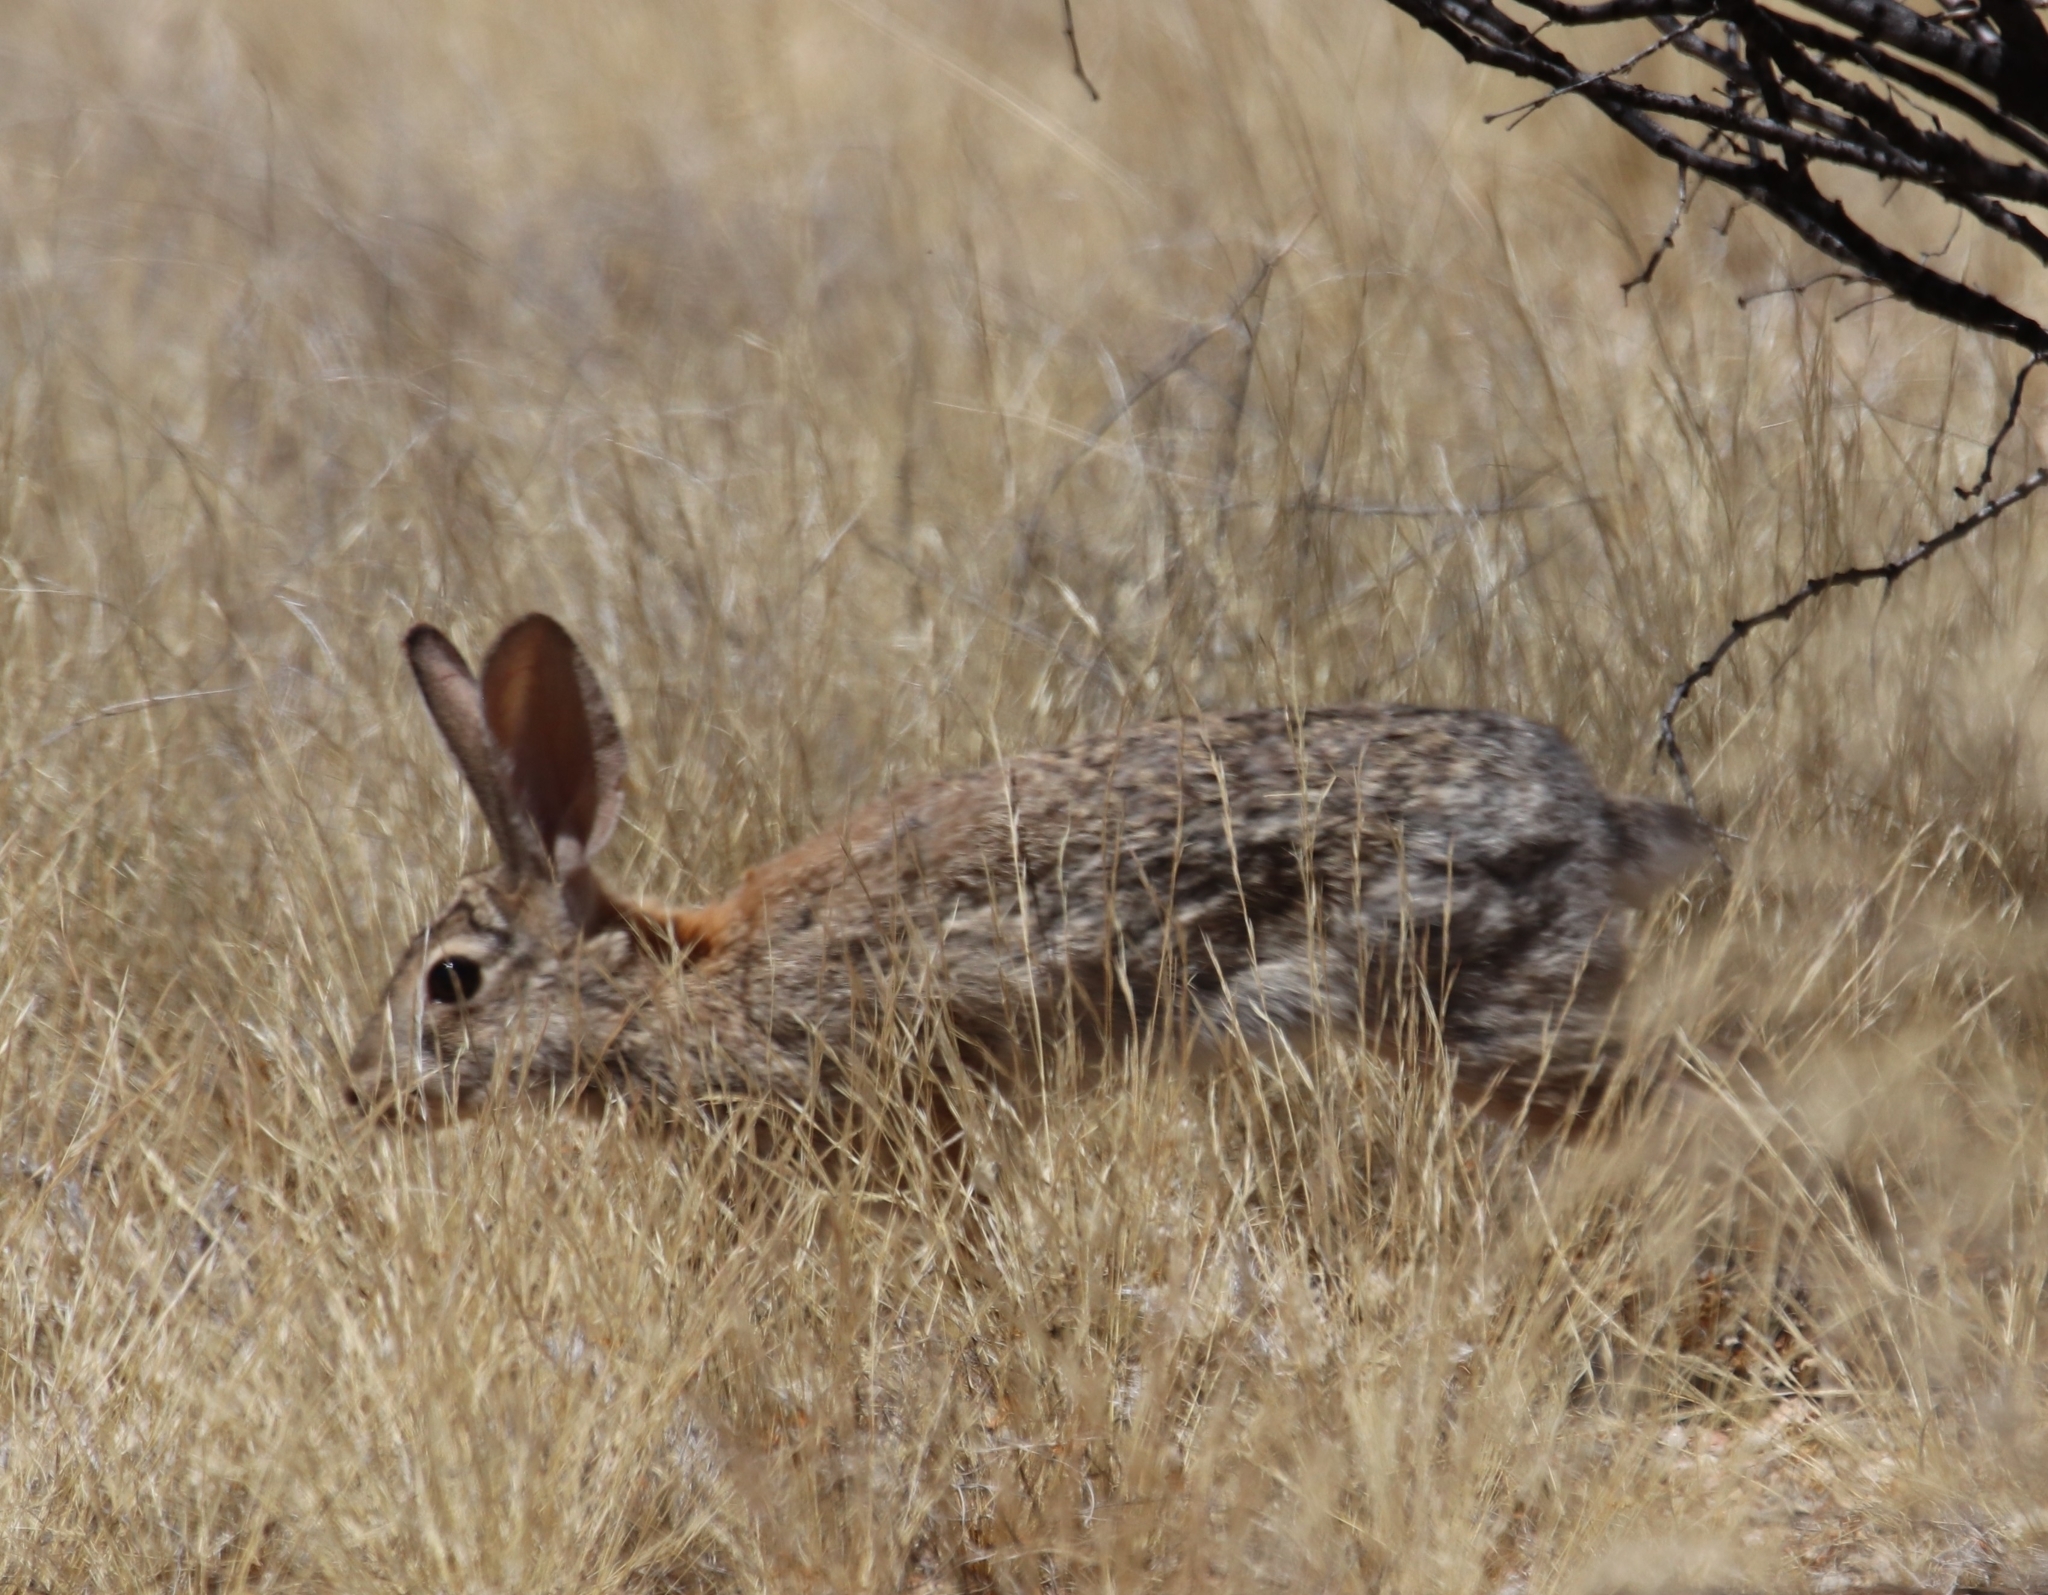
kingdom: Animalia
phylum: Chordata
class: Mammalia
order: Lagomorpha
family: Leporidae
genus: Sylvilagus
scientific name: Sylvilagus audubonii
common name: Desert cottontail
